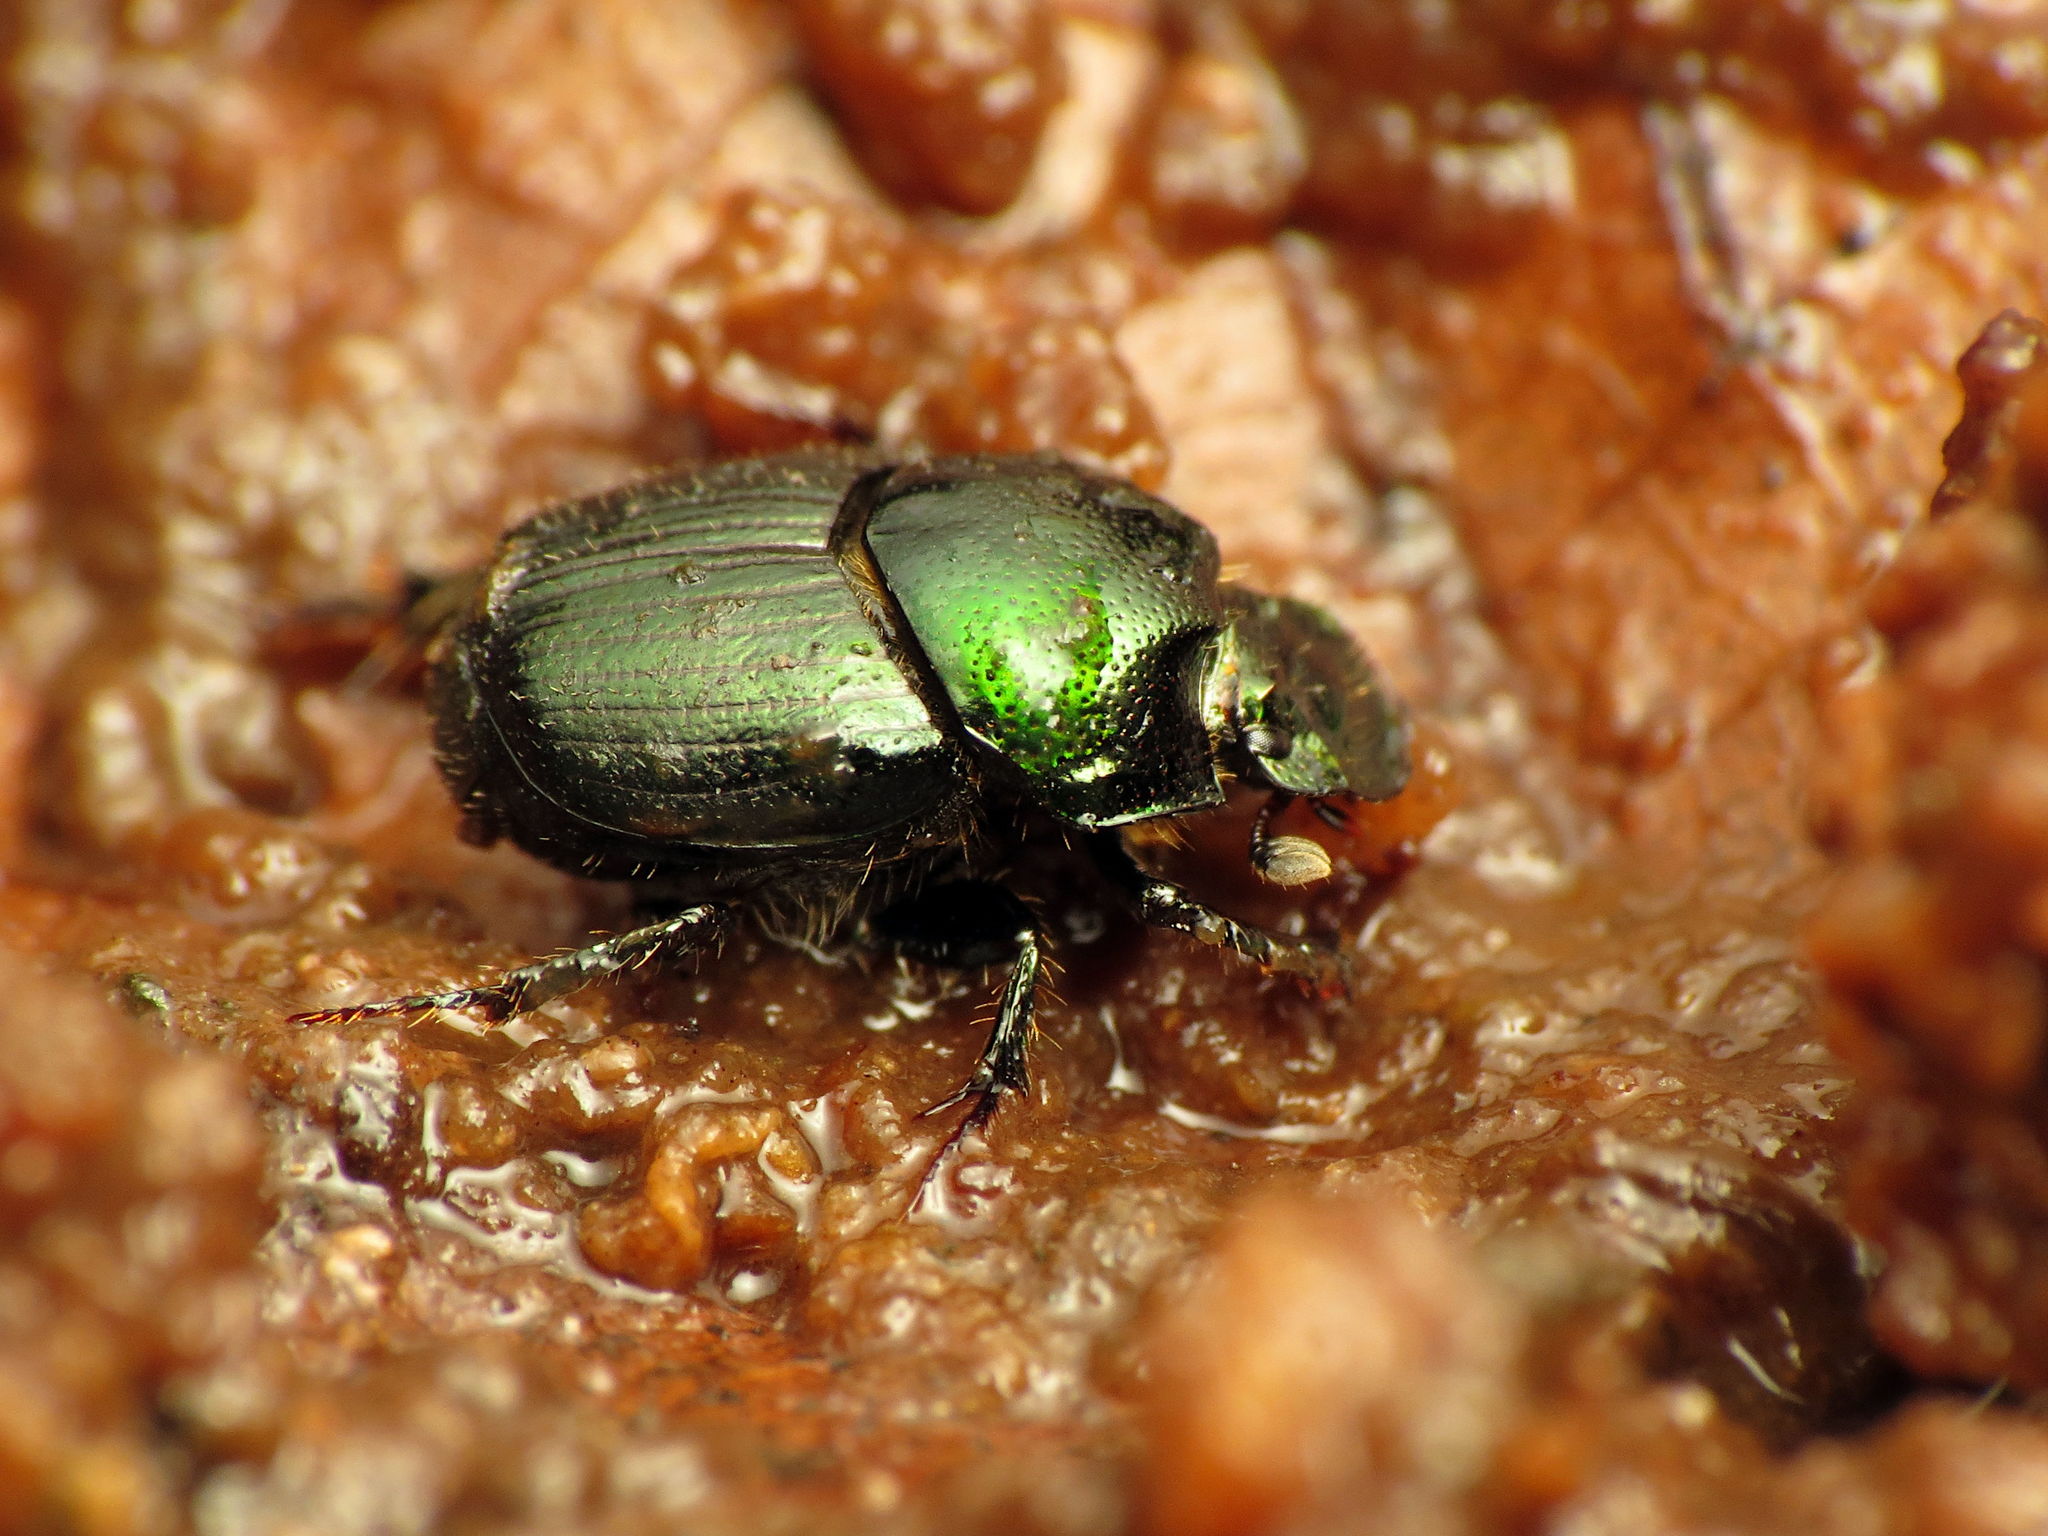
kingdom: Animalia
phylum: Arthropoda
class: Insecta
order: Coleoptera
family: Scarabaeidae
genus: Onthophagus
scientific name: Onthophagus orpheus
